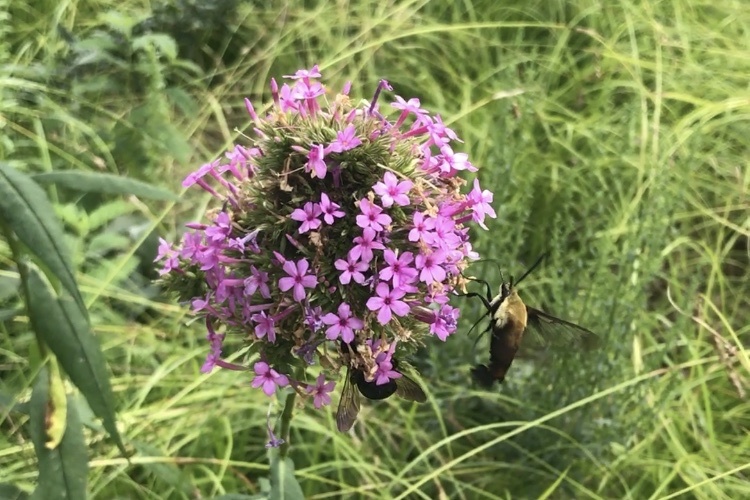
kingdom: Animalia
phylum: Arthropoda
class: Insecta
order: Lepidoptera
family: Sphingidae
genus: Hemaris
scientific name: Hemaris diffinis
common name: Bumblebee moth
